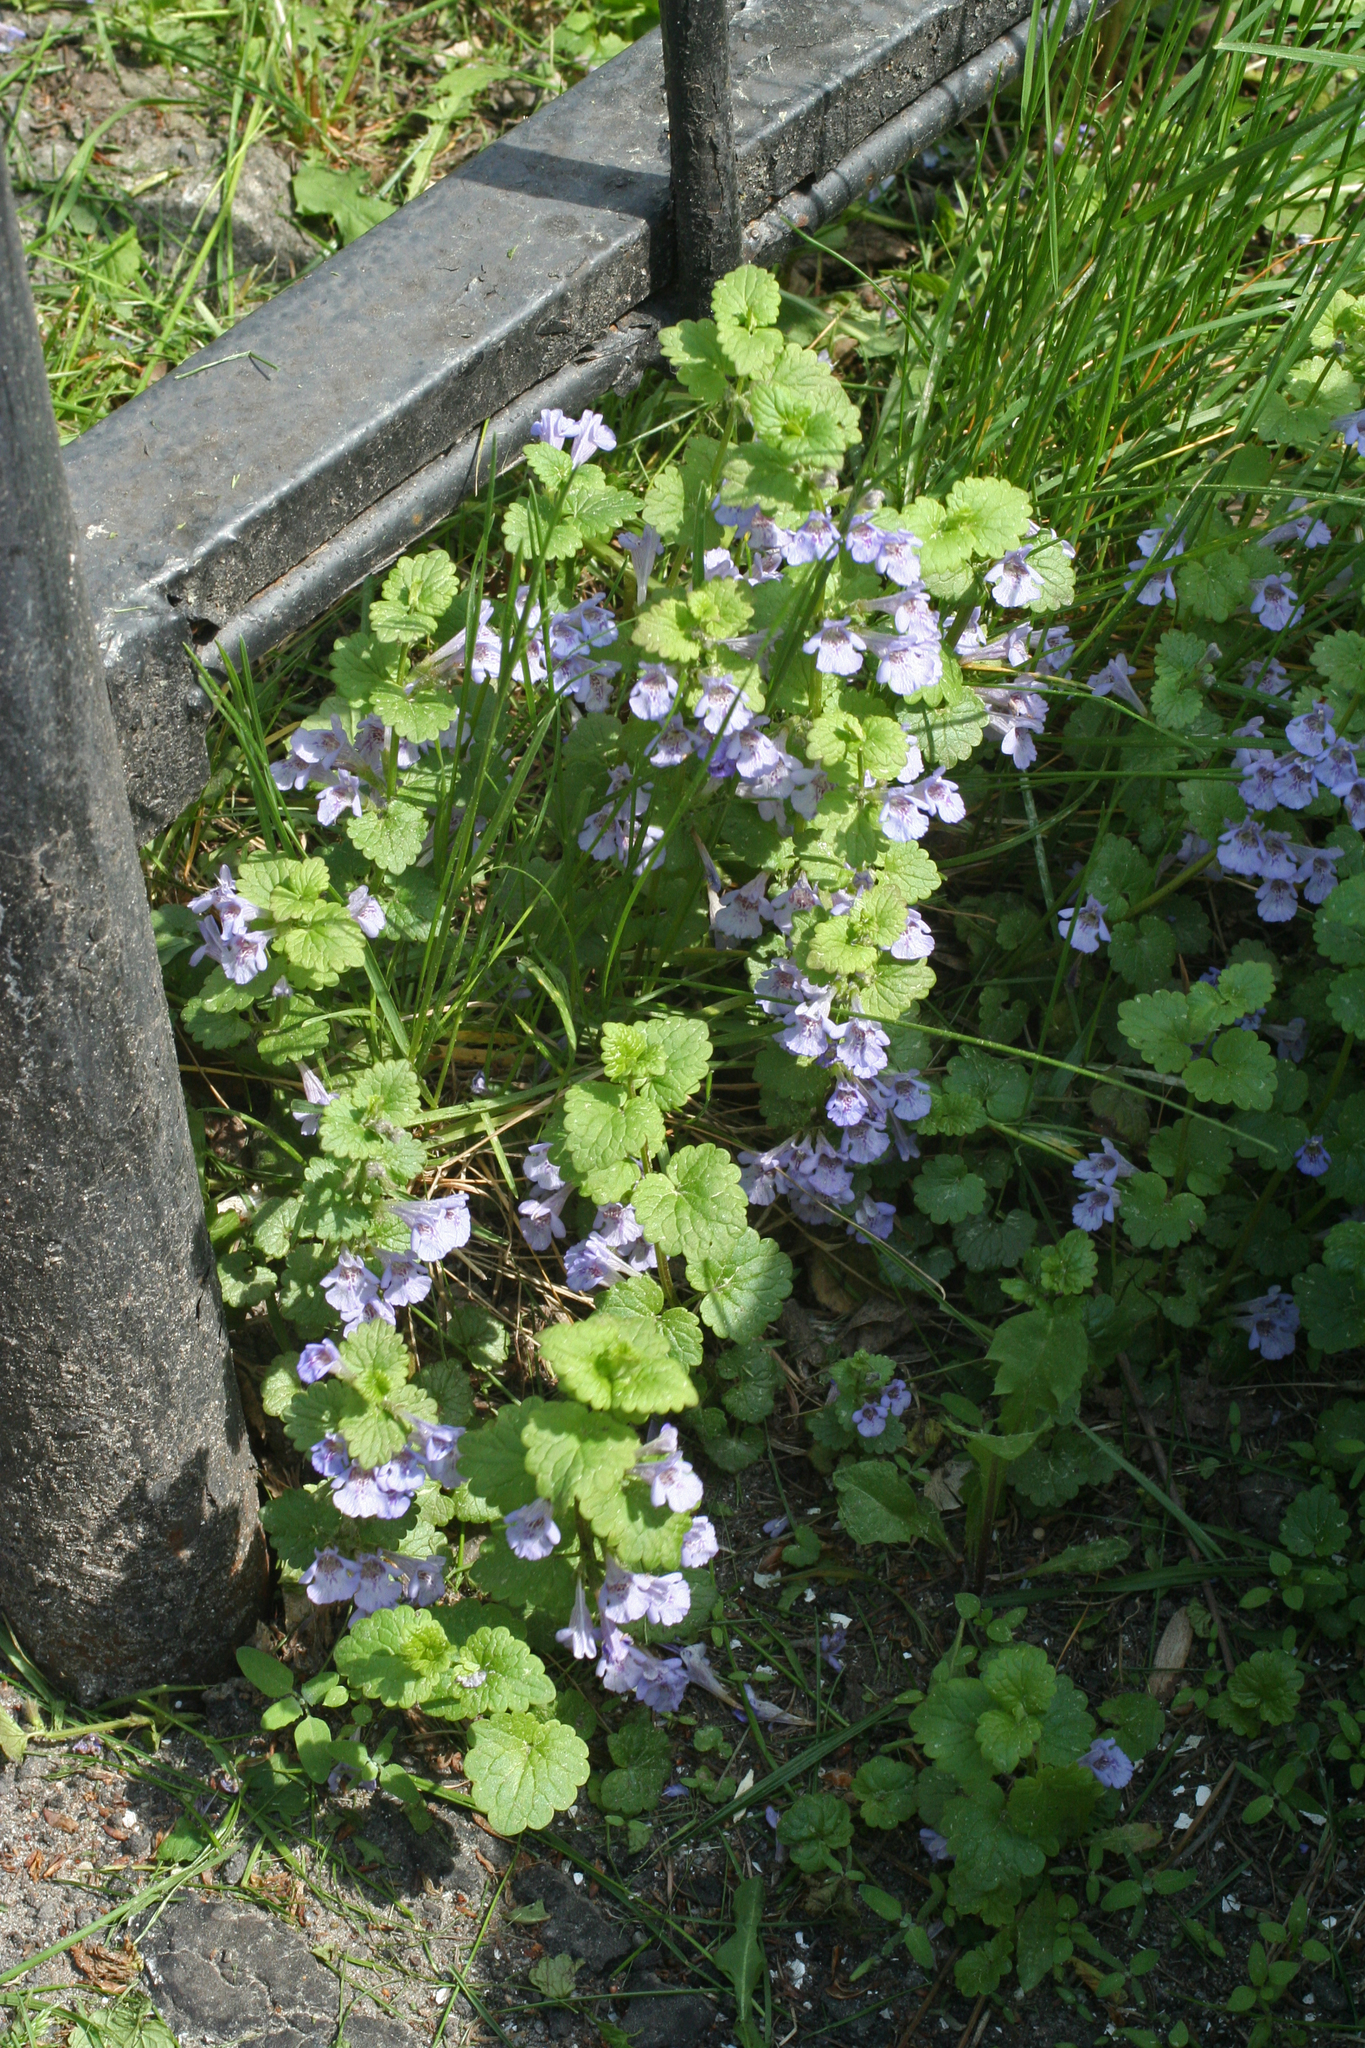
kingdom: Plantae
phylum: Tracheophyta
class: Magnoliopsida
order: Lamiales
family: Lamiaceae
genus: Glechoma
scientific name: Glechoma hederacea
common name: Ground ivy
